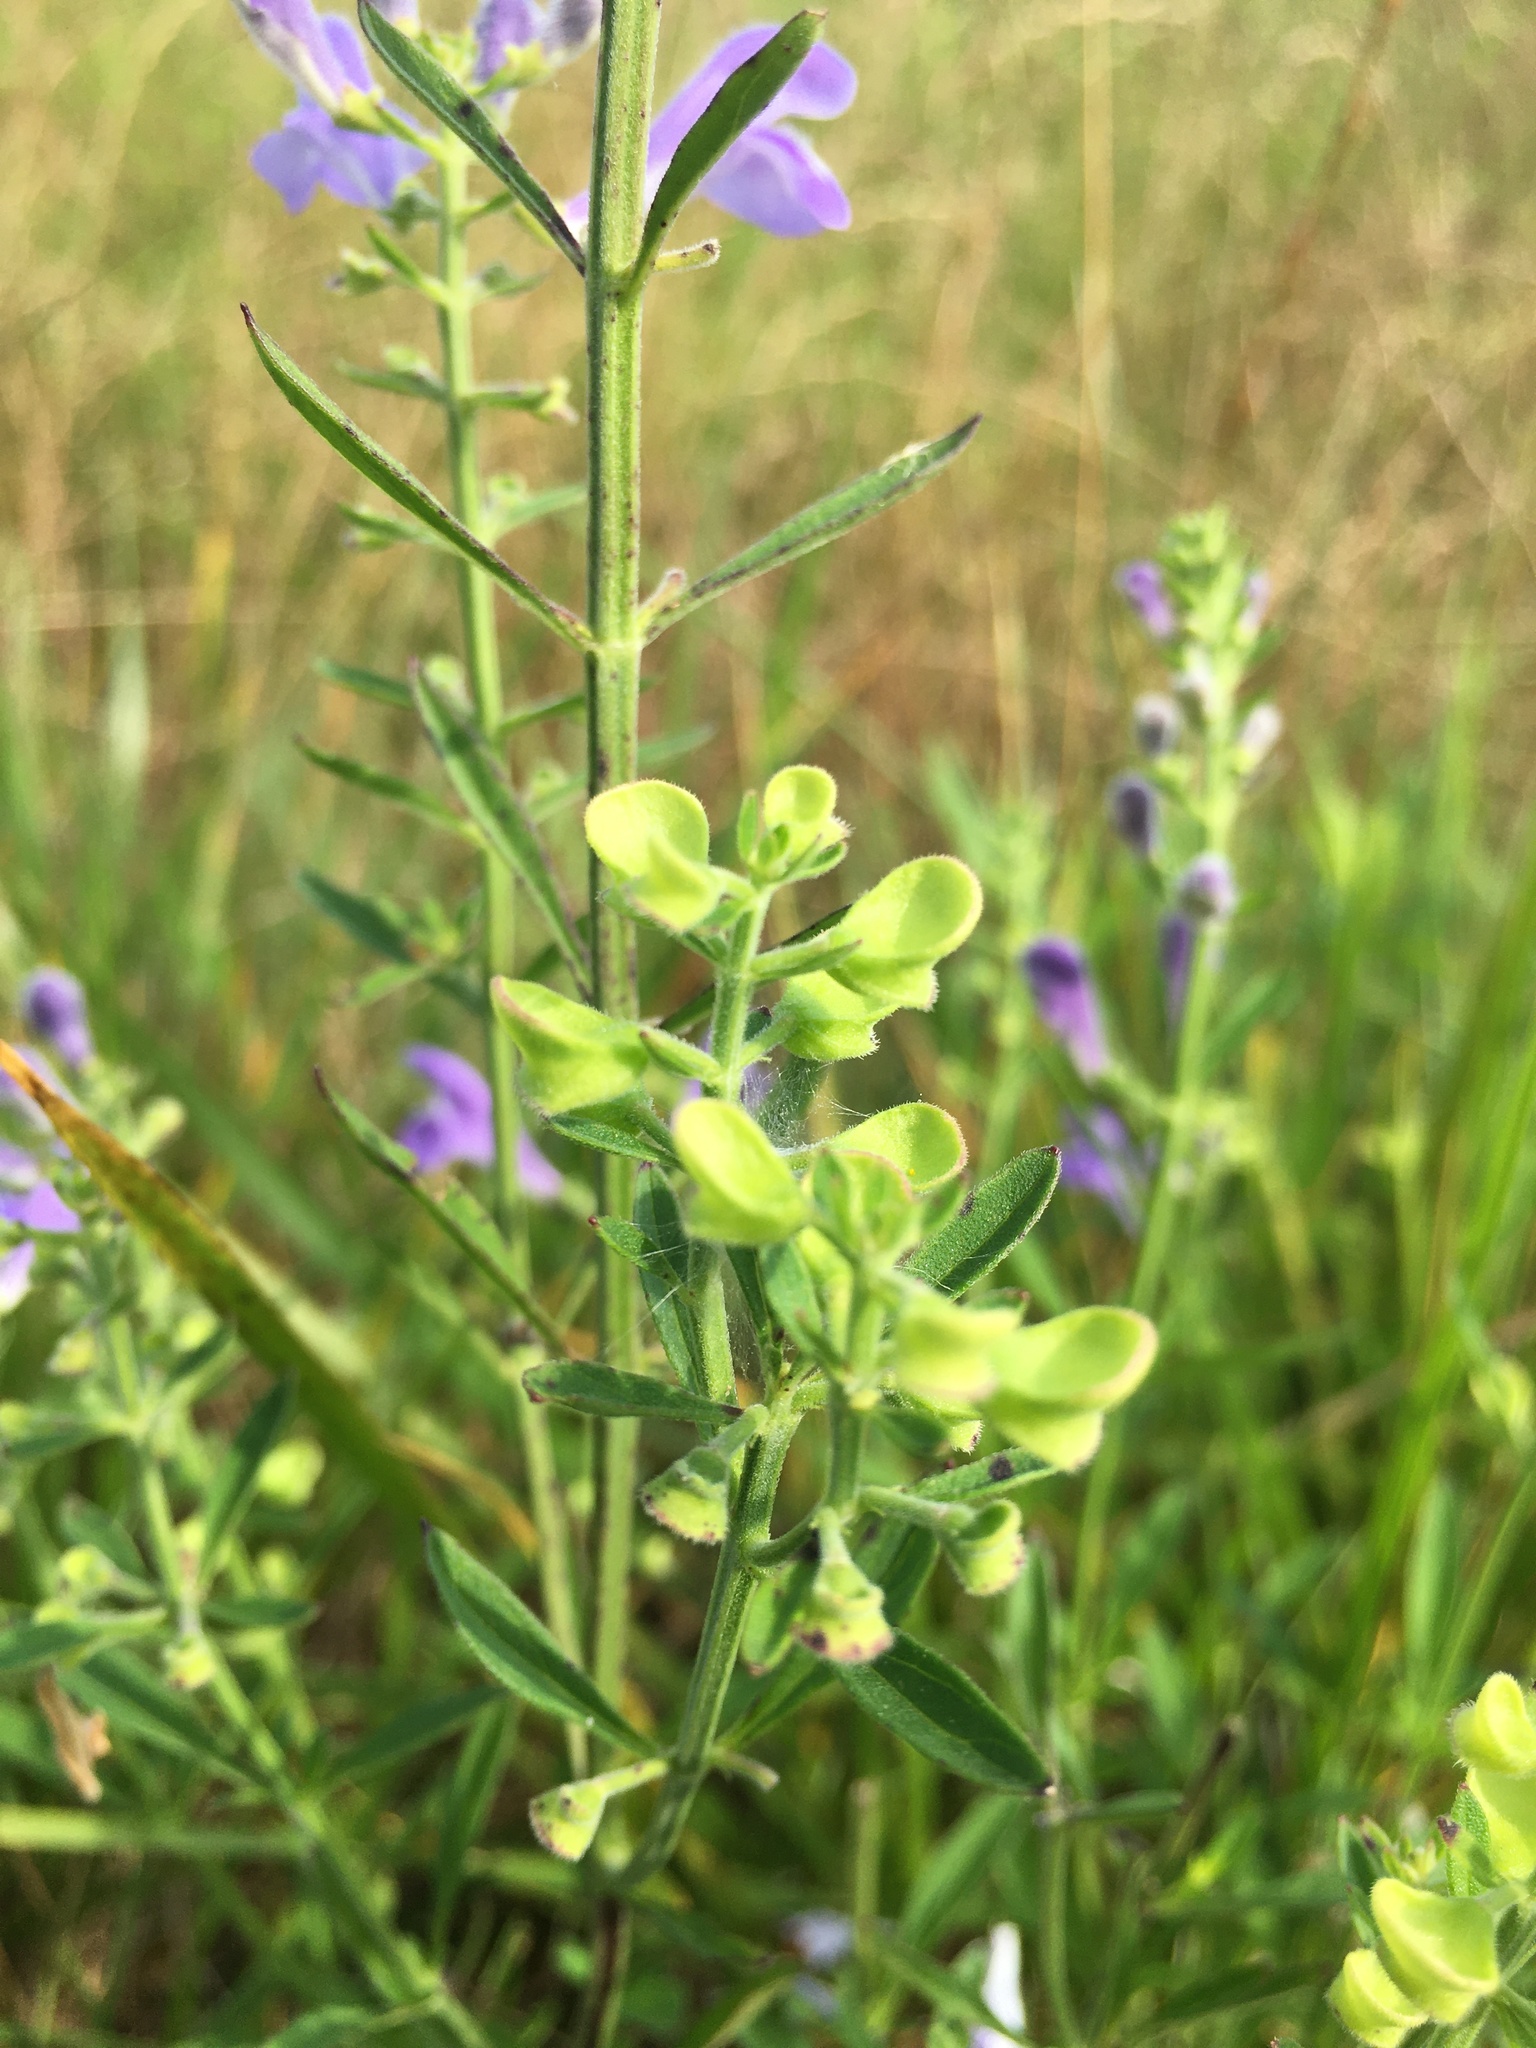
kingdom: Plantae
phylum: Tracheophyta
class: Magnoliopsida
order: Lamiales
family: Lamiaceae
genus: Scutellaria
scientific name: Scutellaria integrifolia
